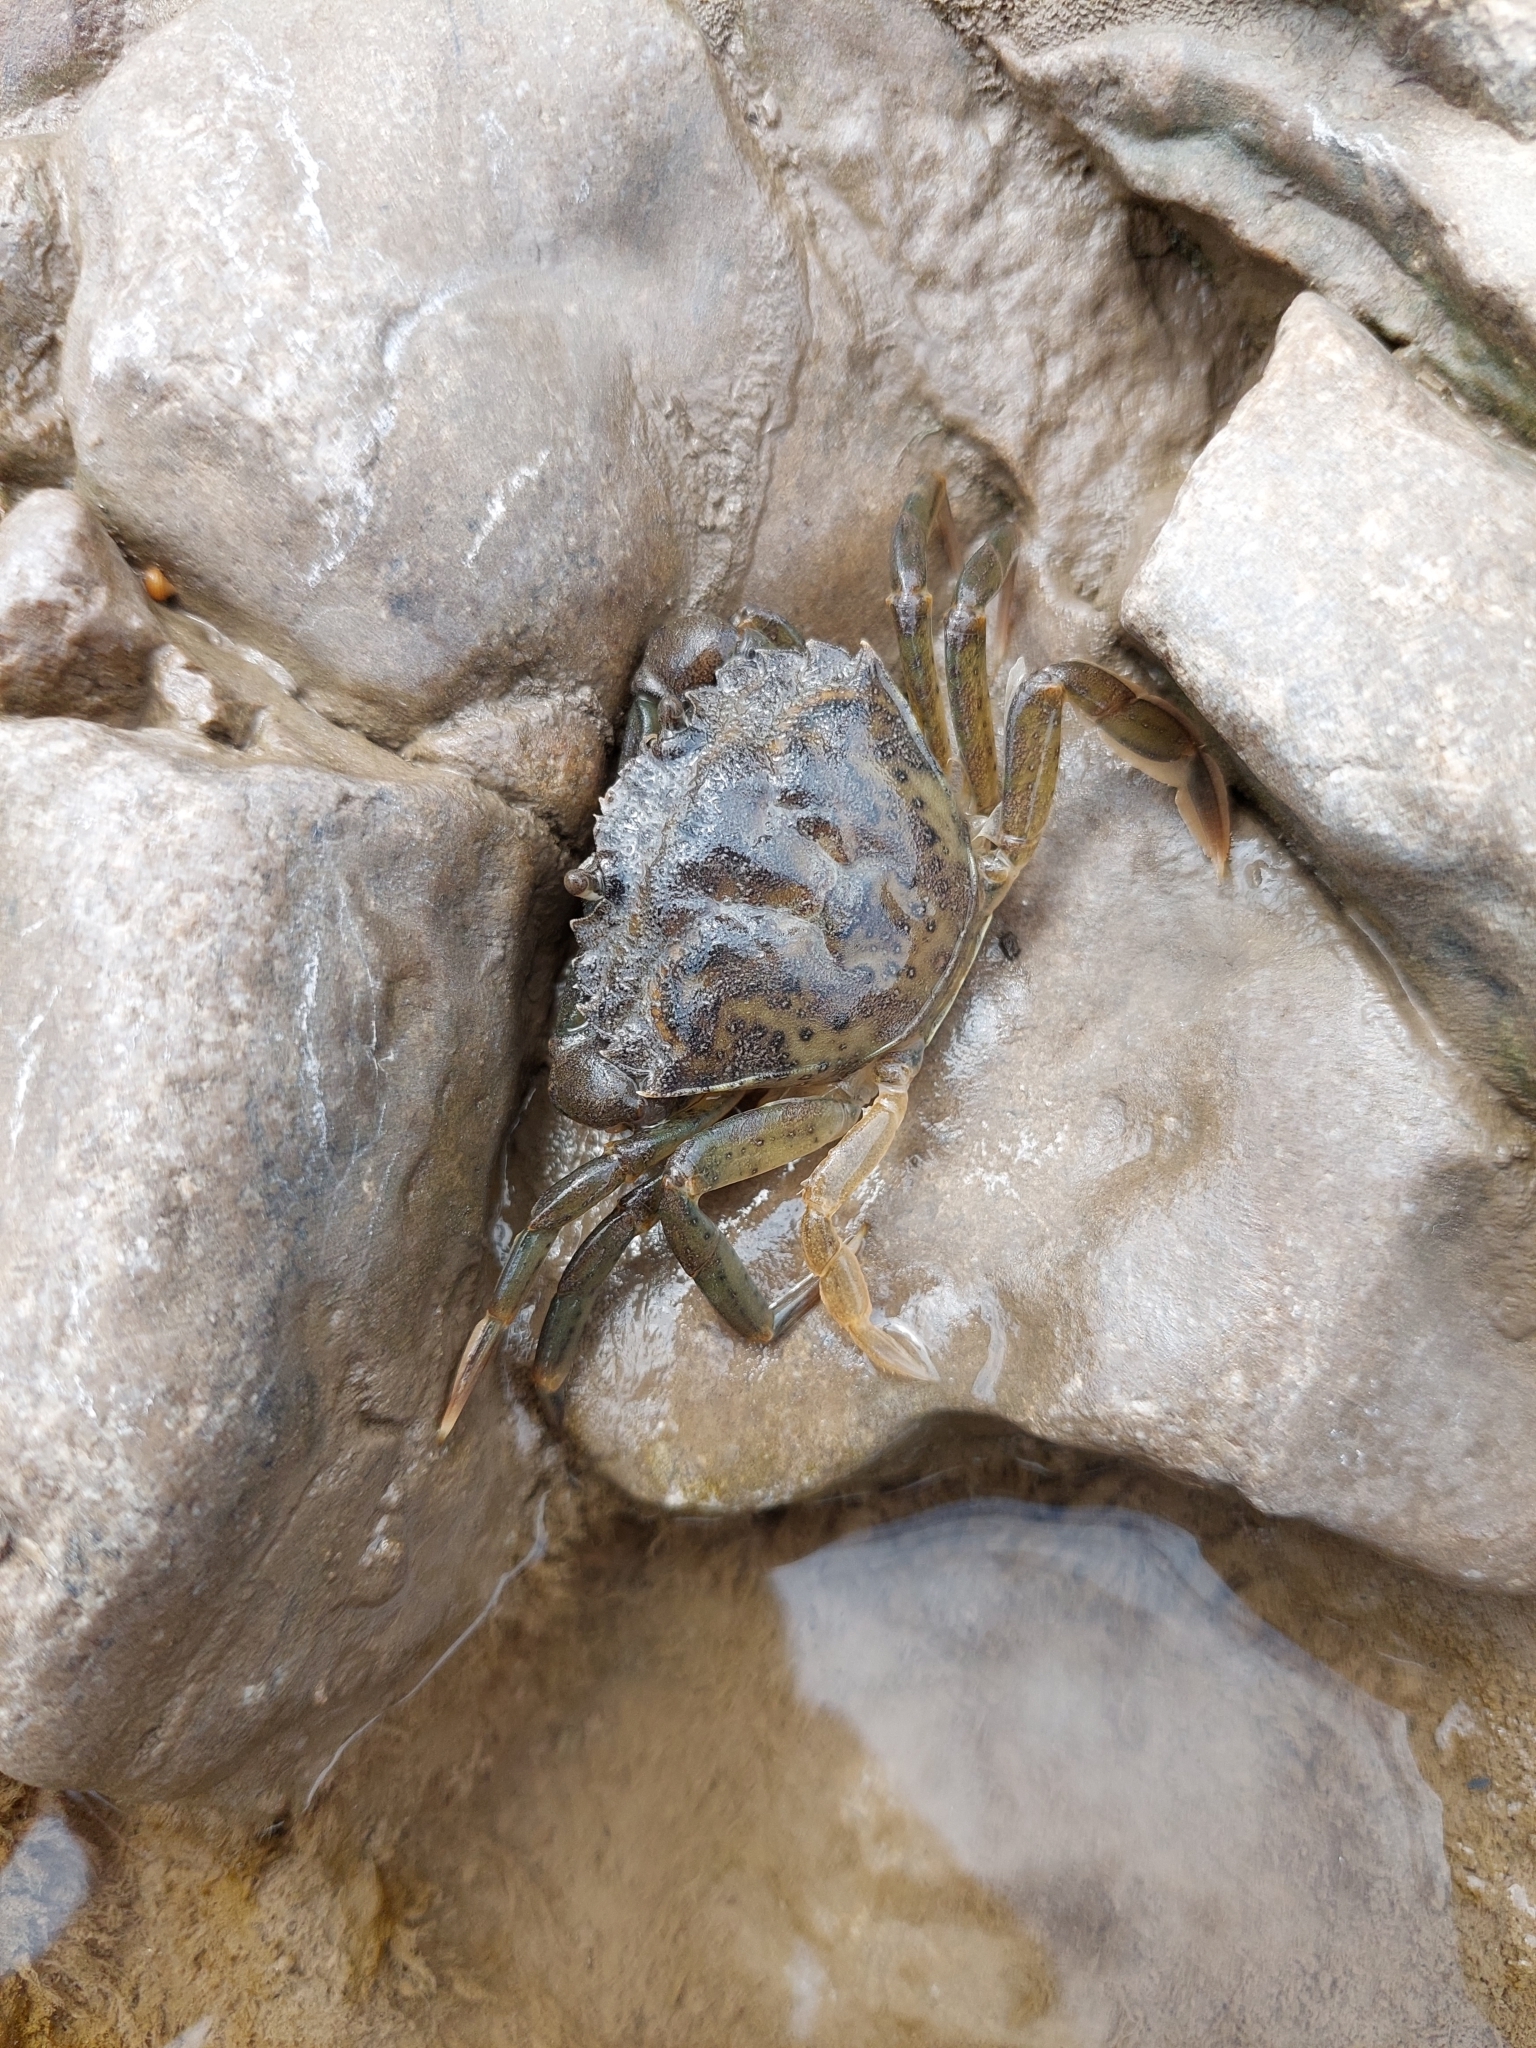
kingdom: Animalia
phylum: Arthropoda
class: Malacostraca
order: Decapoda
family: Carcinidae
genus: Carcinus
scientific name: Carcinus maenas
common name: European green crab
